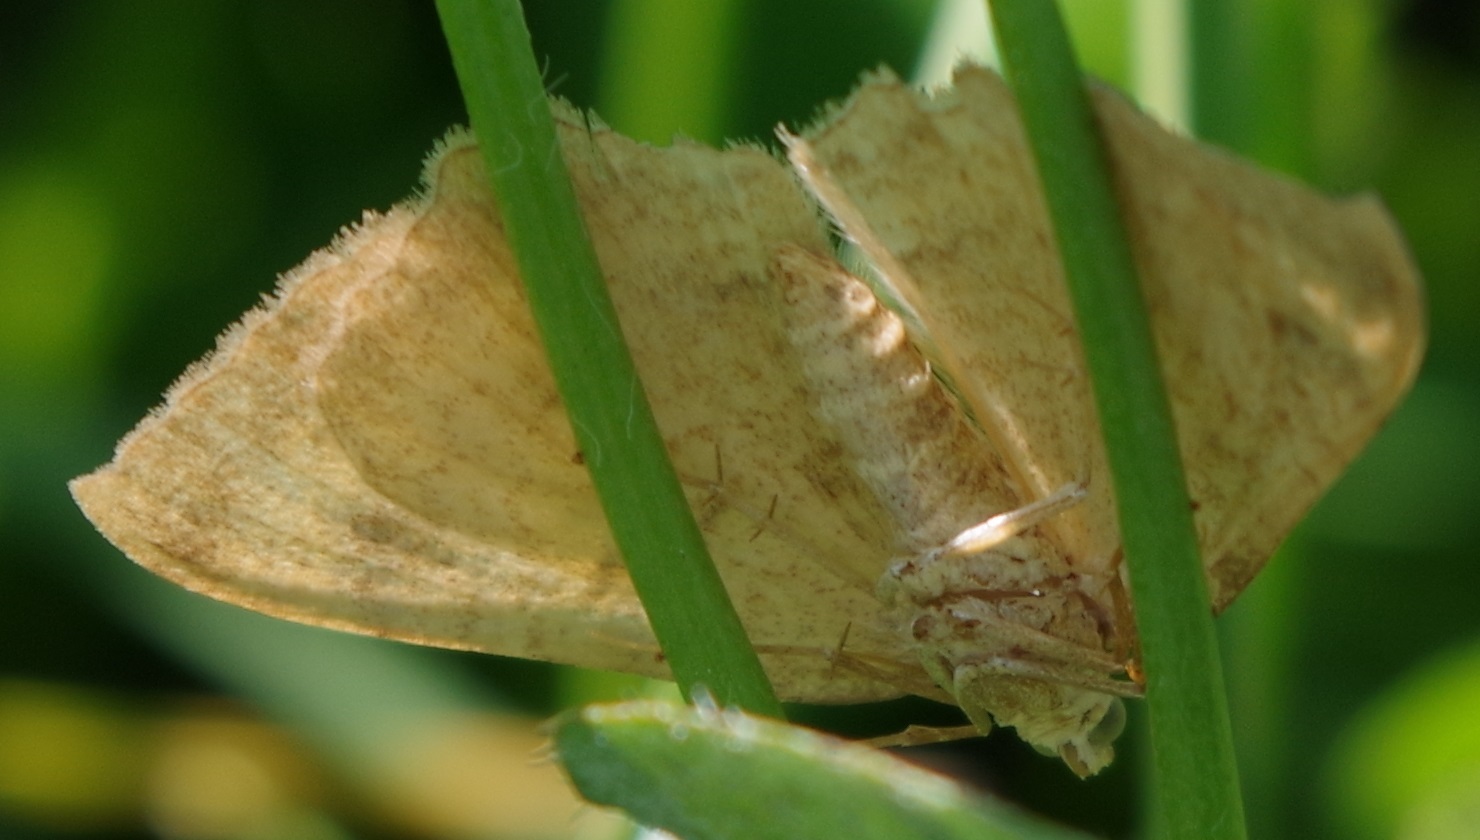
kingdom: Animalia
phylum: Arthropoda
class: Insecta
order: Lepidoptera
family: Geometridae
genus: Camptogramma
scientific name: Camptogramma bilineata
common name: Yellow shell
